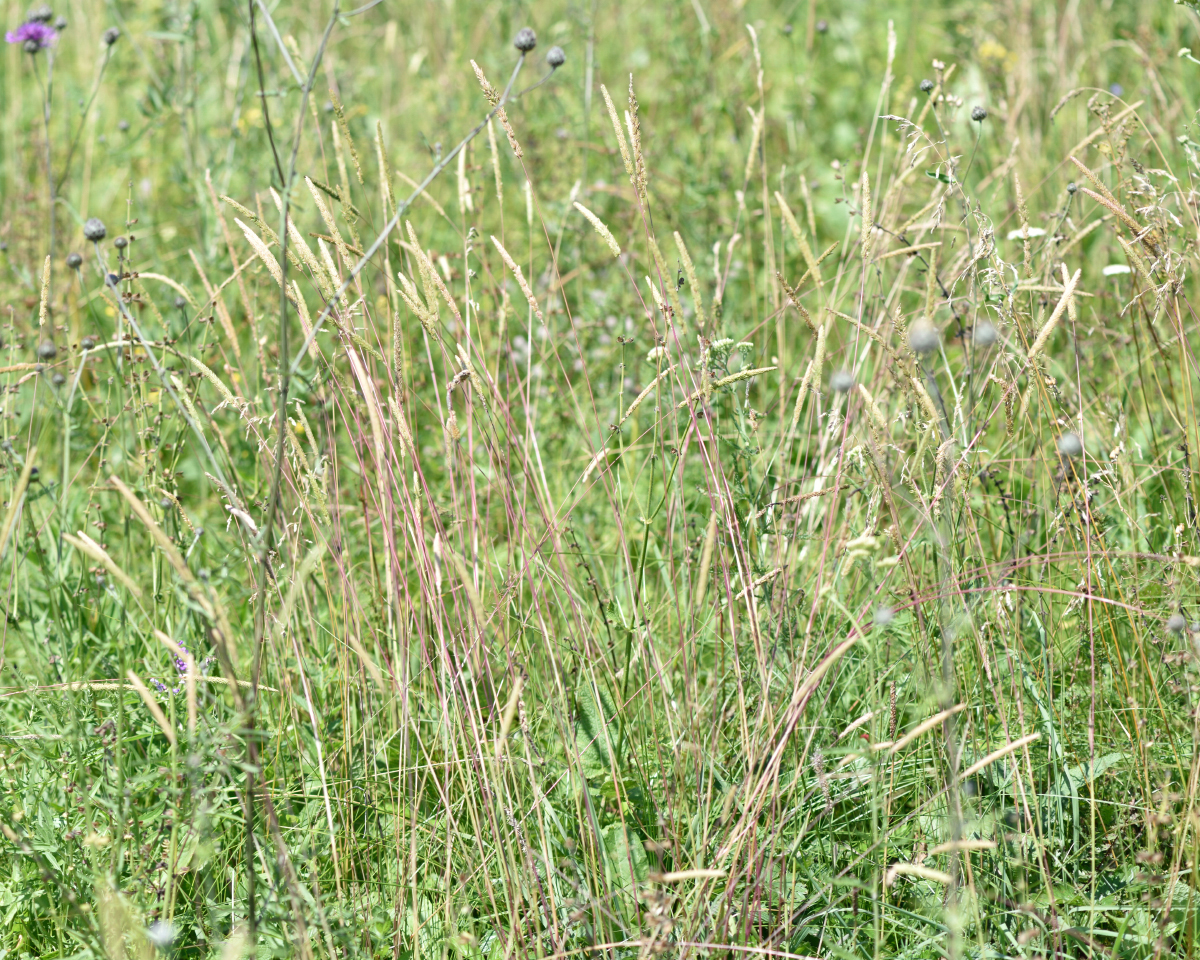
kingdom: Plantae
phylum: Tracheophyta
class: Liliopsida
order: Poales
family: Poaceae
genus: Phleum
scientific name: Phleum phleoides
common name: Purple-stem cat's-tail
